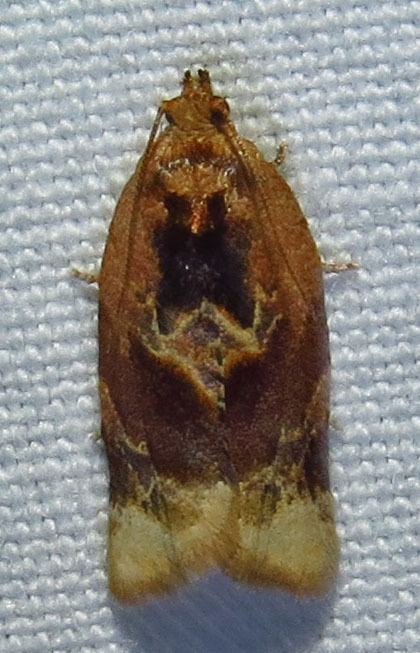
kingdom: Animalia
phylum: Arthropoda
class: Insecta
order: Lepidoptera
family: Tortricidae
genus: Argyrotaenia
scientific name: Argyrotaenia velutinana
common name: Red-banded leafroller moth
